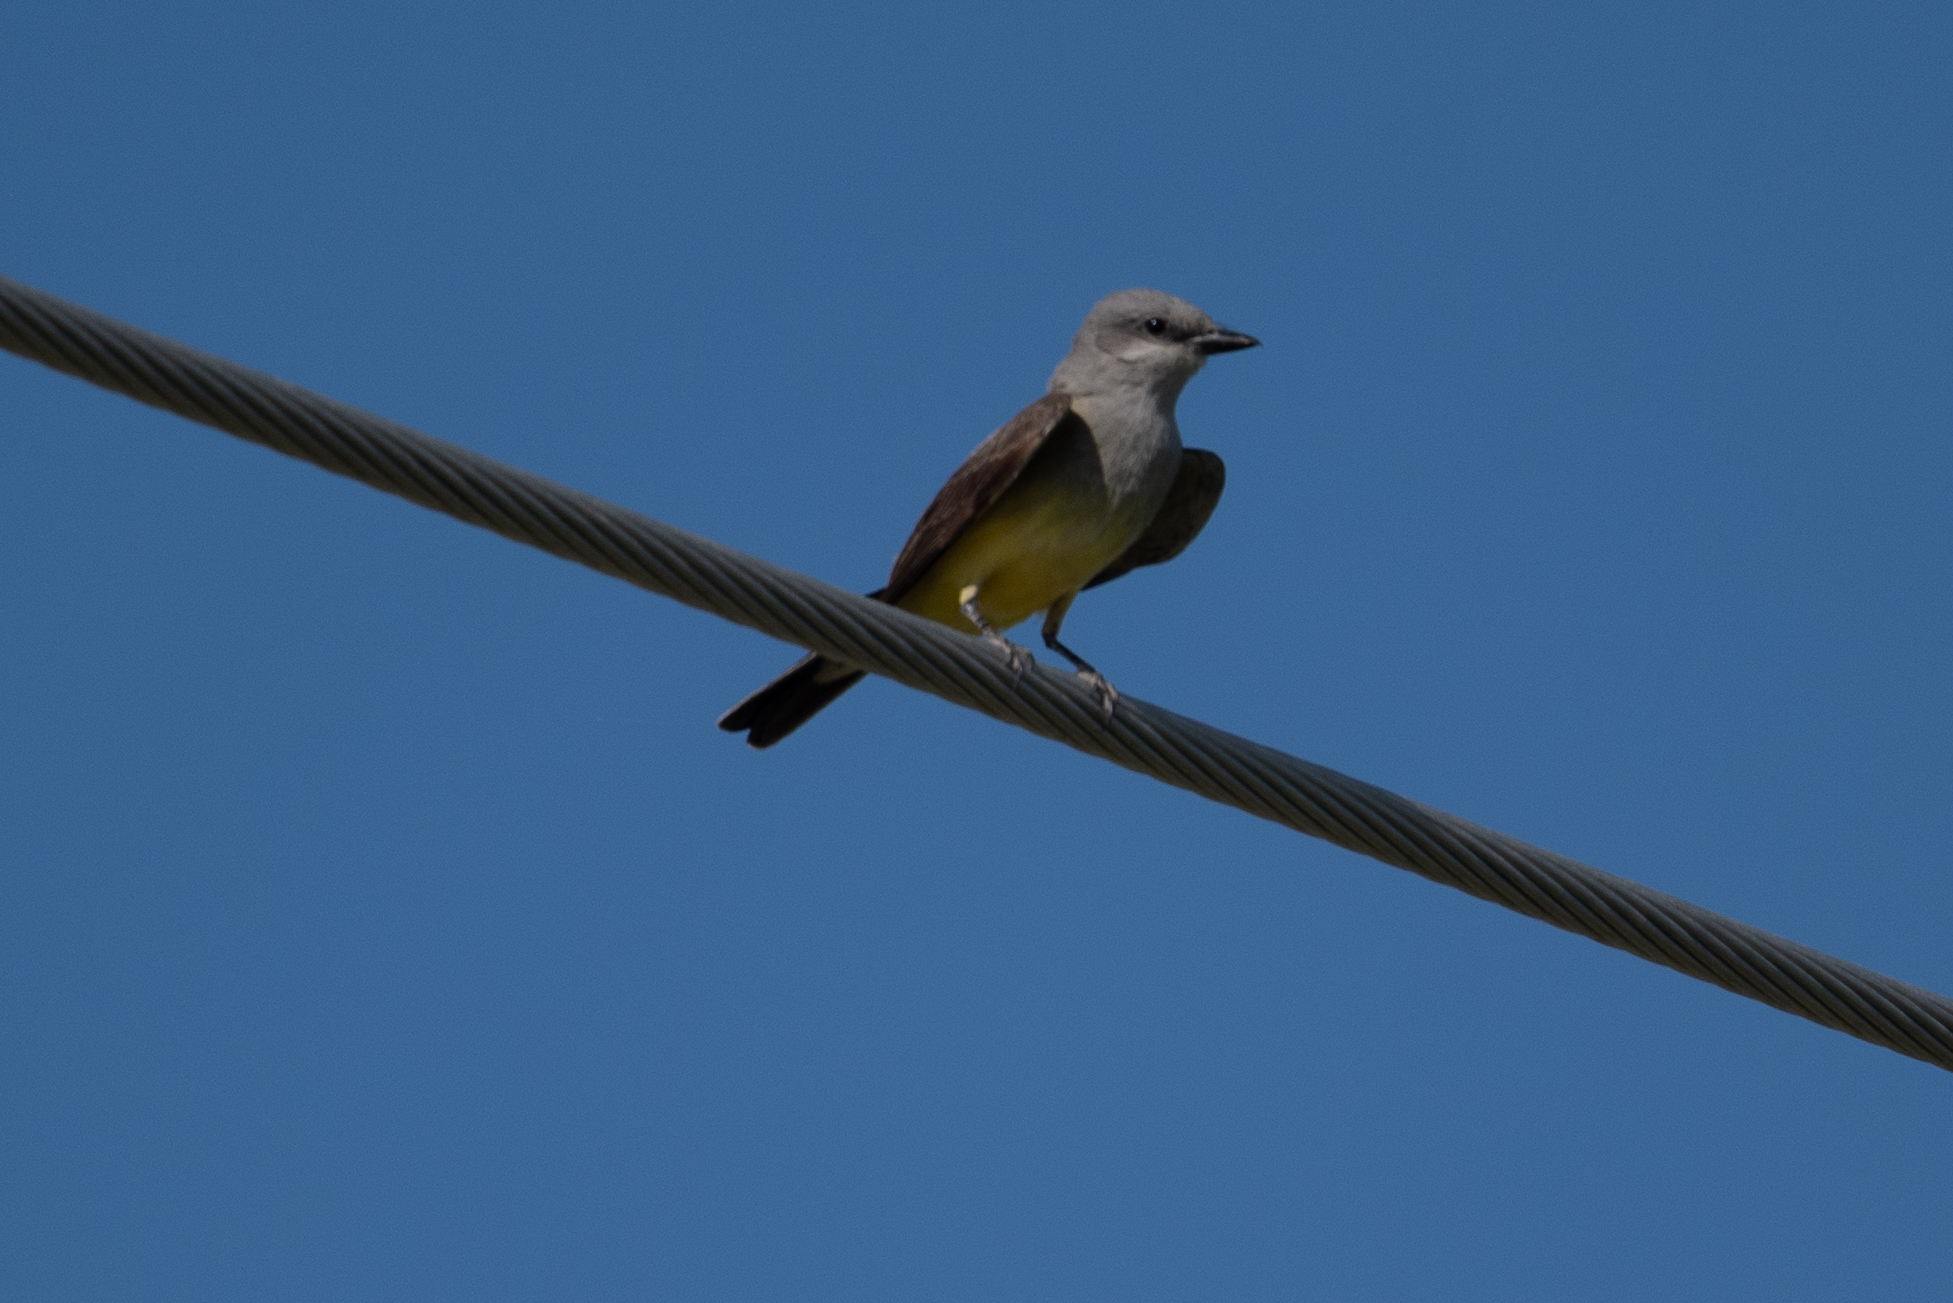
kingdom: Animalia
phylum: Chordata
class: Aves
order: Passeriformes
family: Tyrannidae
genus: Tyrannus
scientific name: Tyrannus verticalis
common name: Western kingbird
